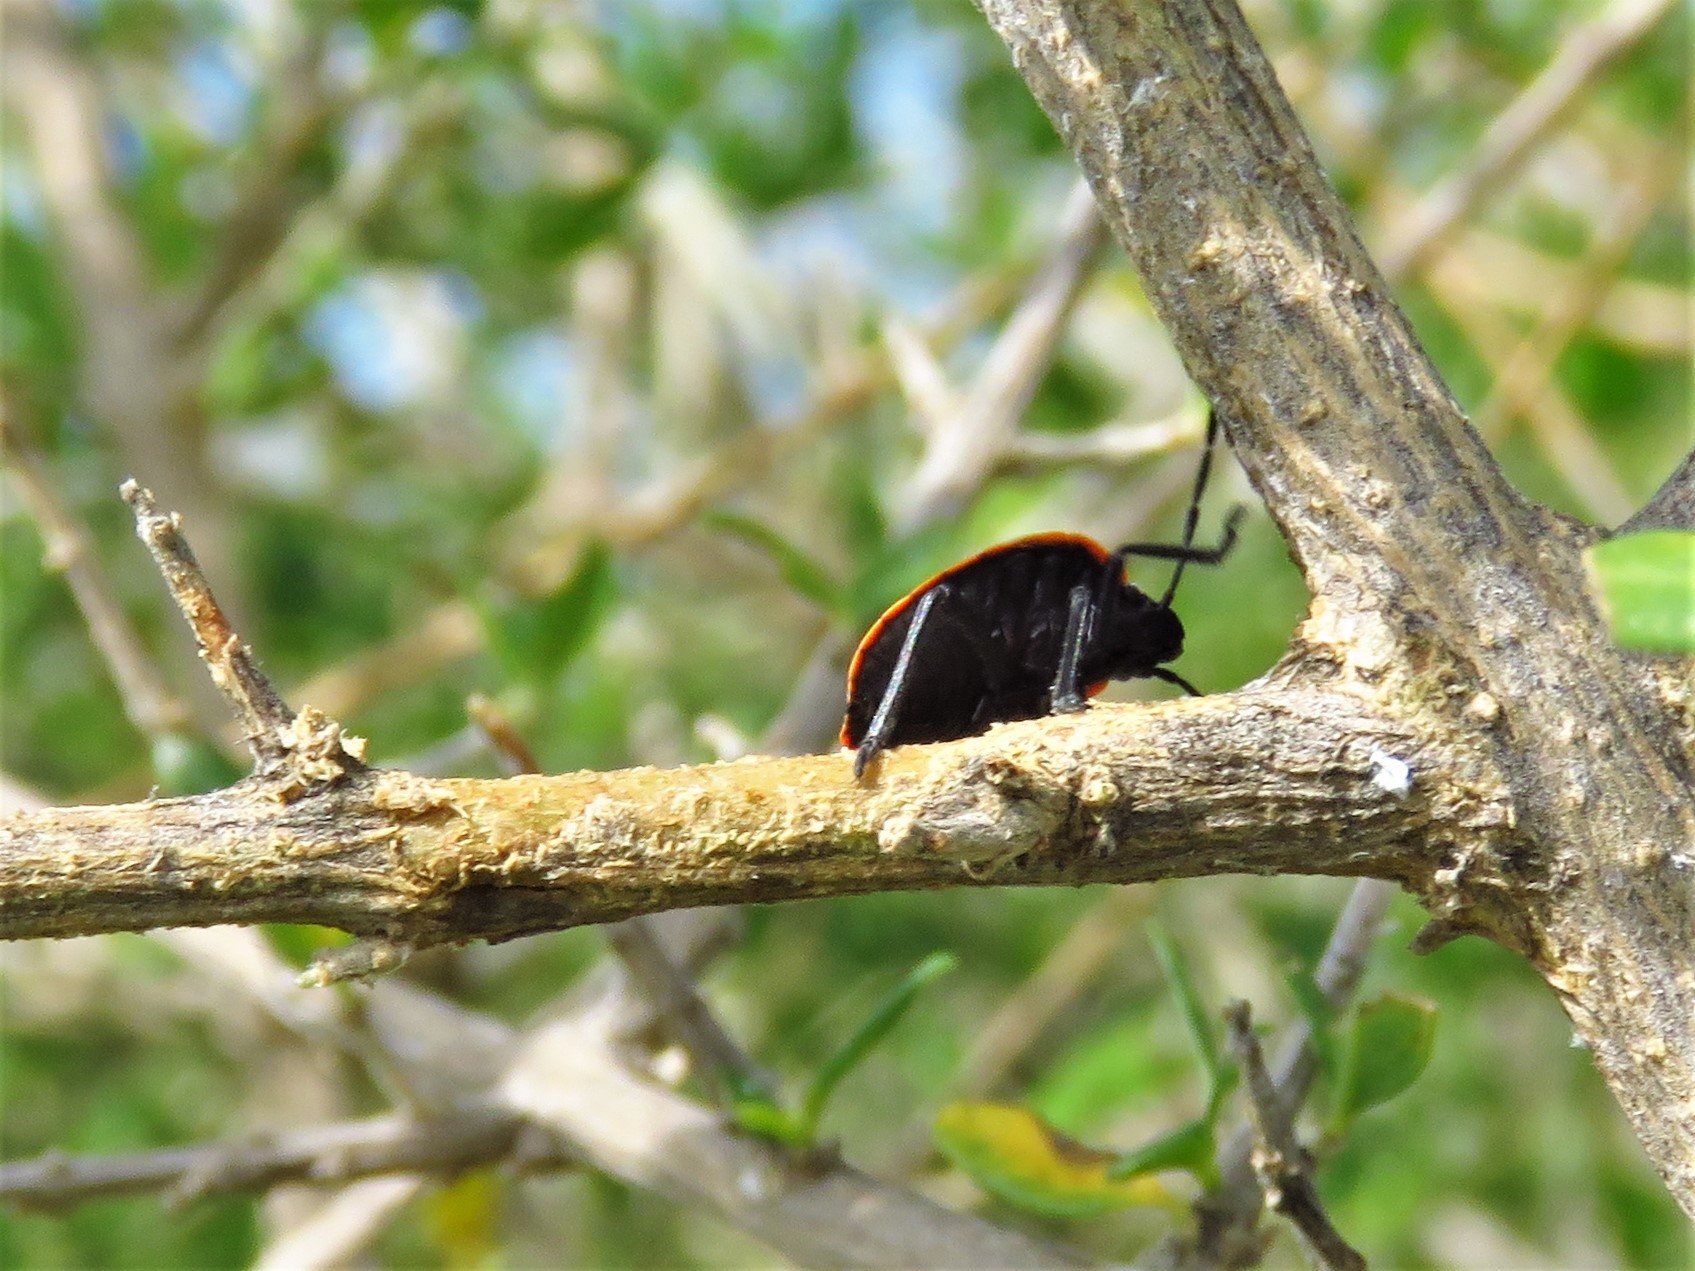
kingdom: Animalia
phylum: Arthropoda
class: Insecta
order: Hemiptera
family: Pentatomidae
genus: Chlorochroa
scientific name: Chlorochroa ligata
